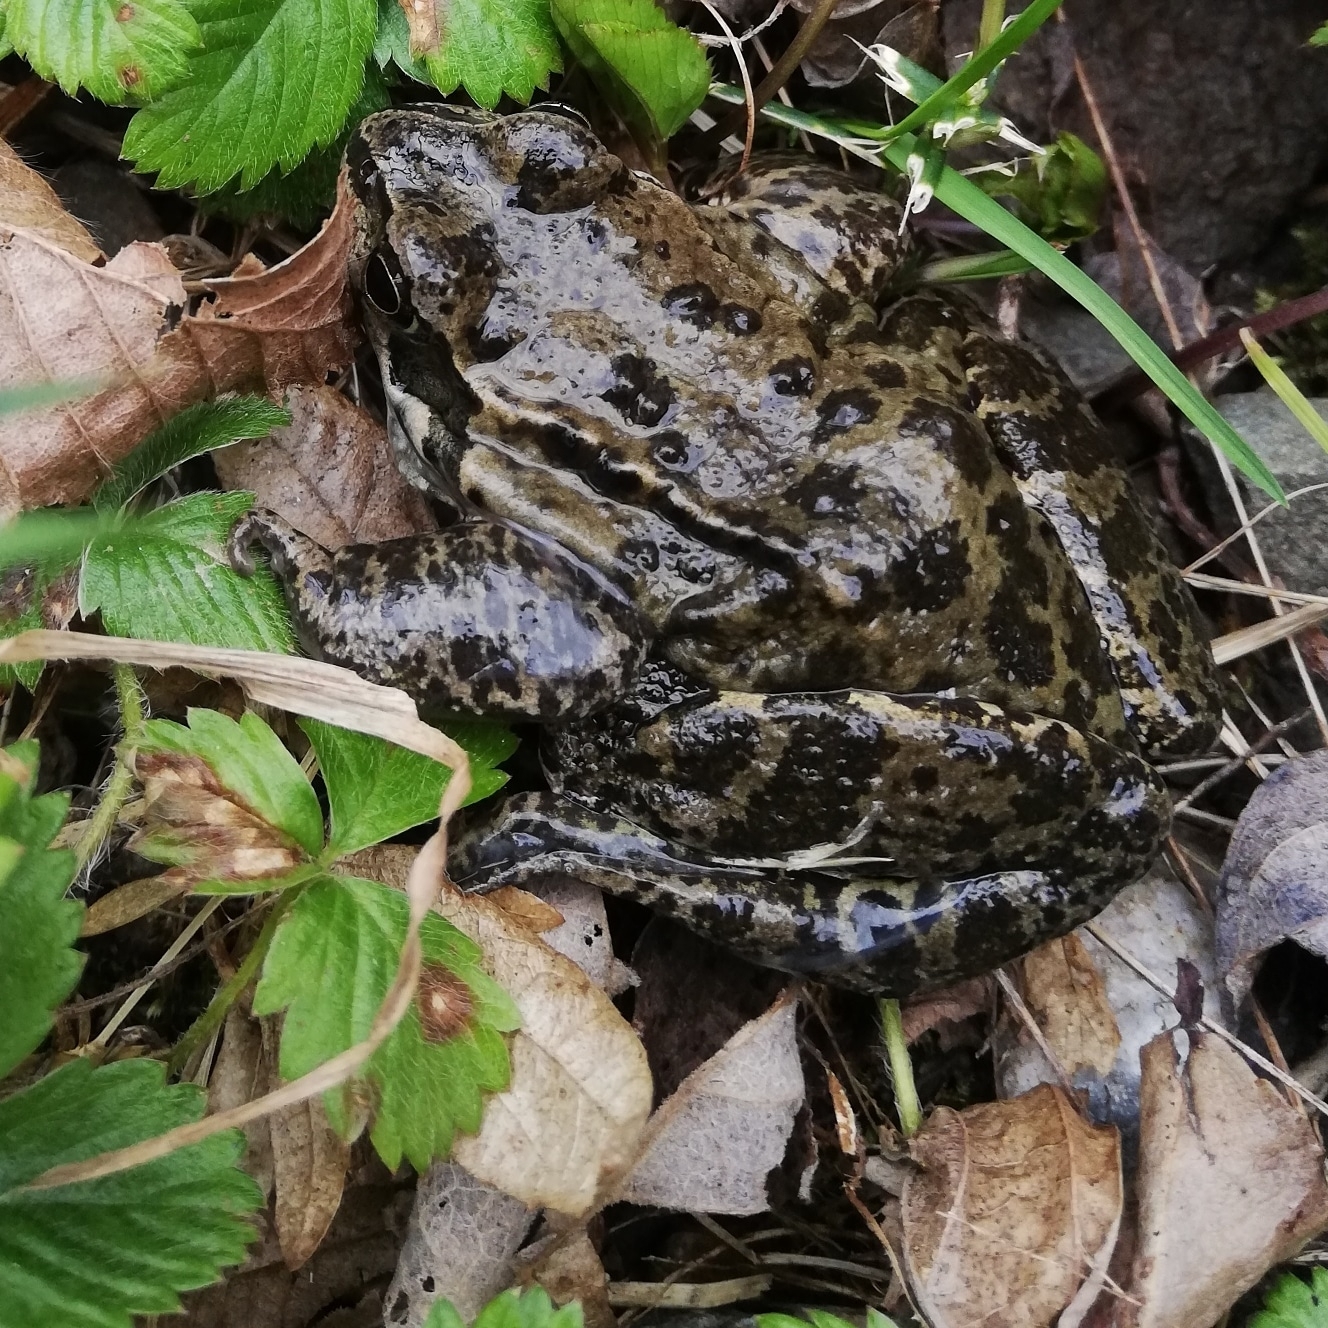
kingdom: Animalia
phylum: Chordata
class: Amphibia
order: Anura
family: Ranidae
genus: Rana
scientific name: Rana temporaria
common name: Common frog
